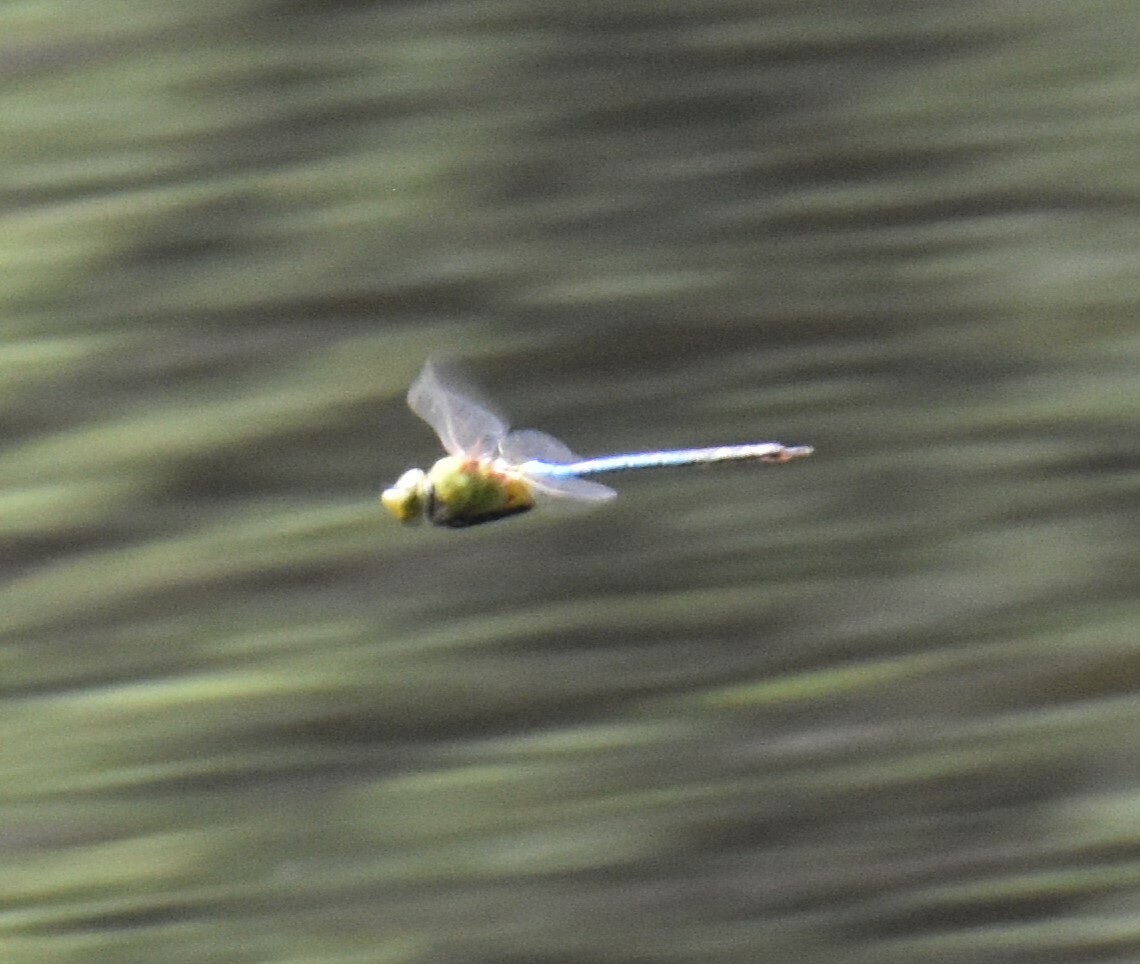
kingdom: Animalia
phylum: Arthropoda
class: Insecta
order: Odonata
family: Aeshnidae
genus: Anax
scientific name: Anax junius
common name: Common green darner
